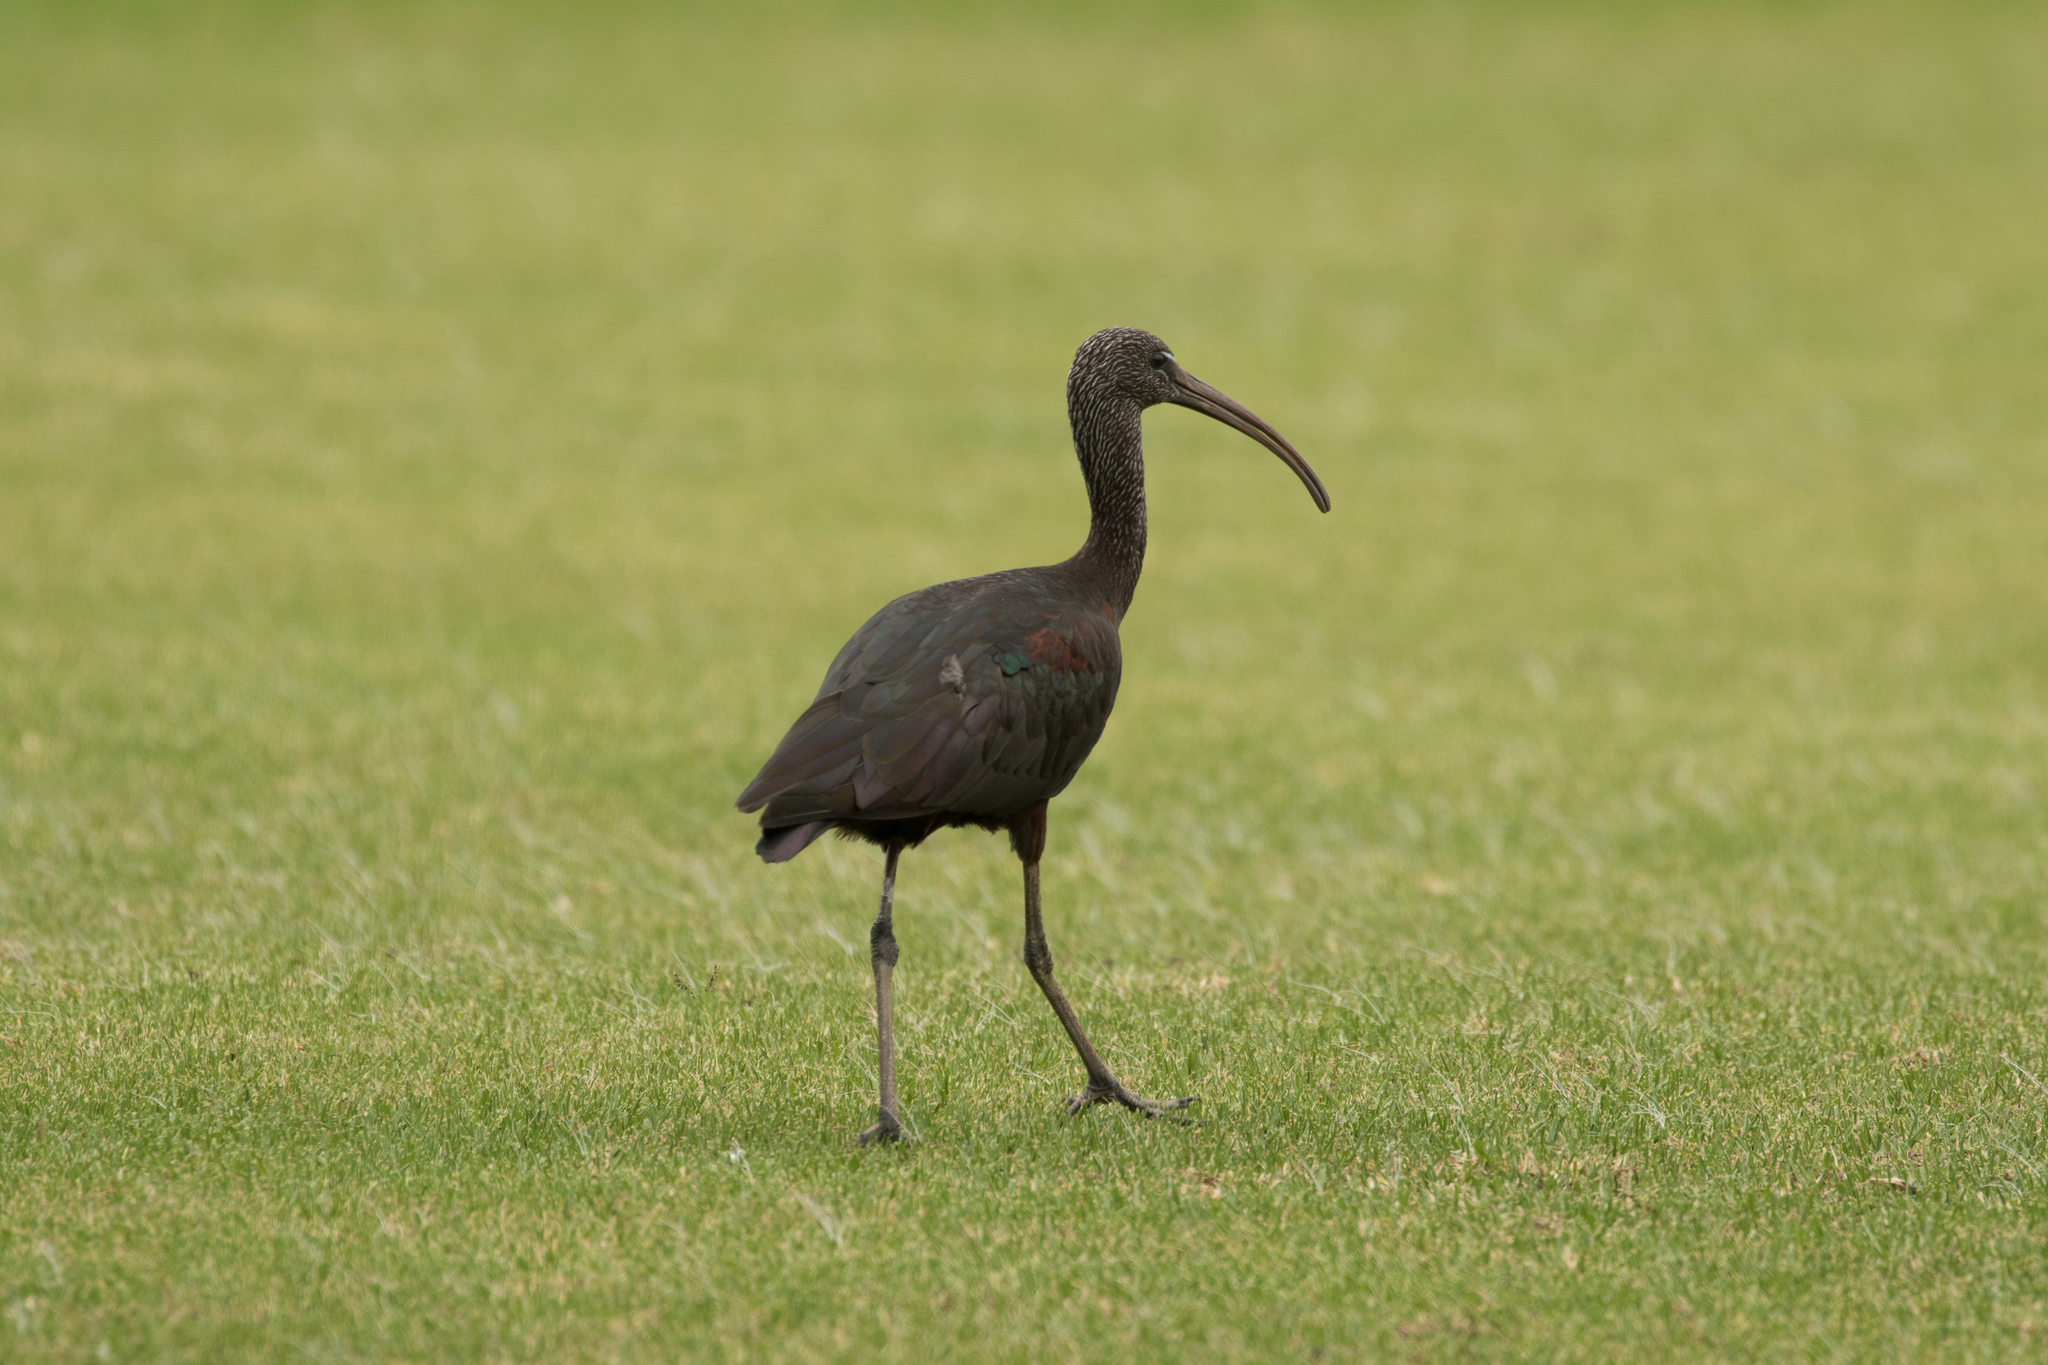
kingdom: Animalia
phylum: Chordata
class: Aves
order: Pelecaniformes
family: Threskiornithidae
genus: Plegadis
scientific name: Plegadis falcinellus
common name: Glossy ibis
